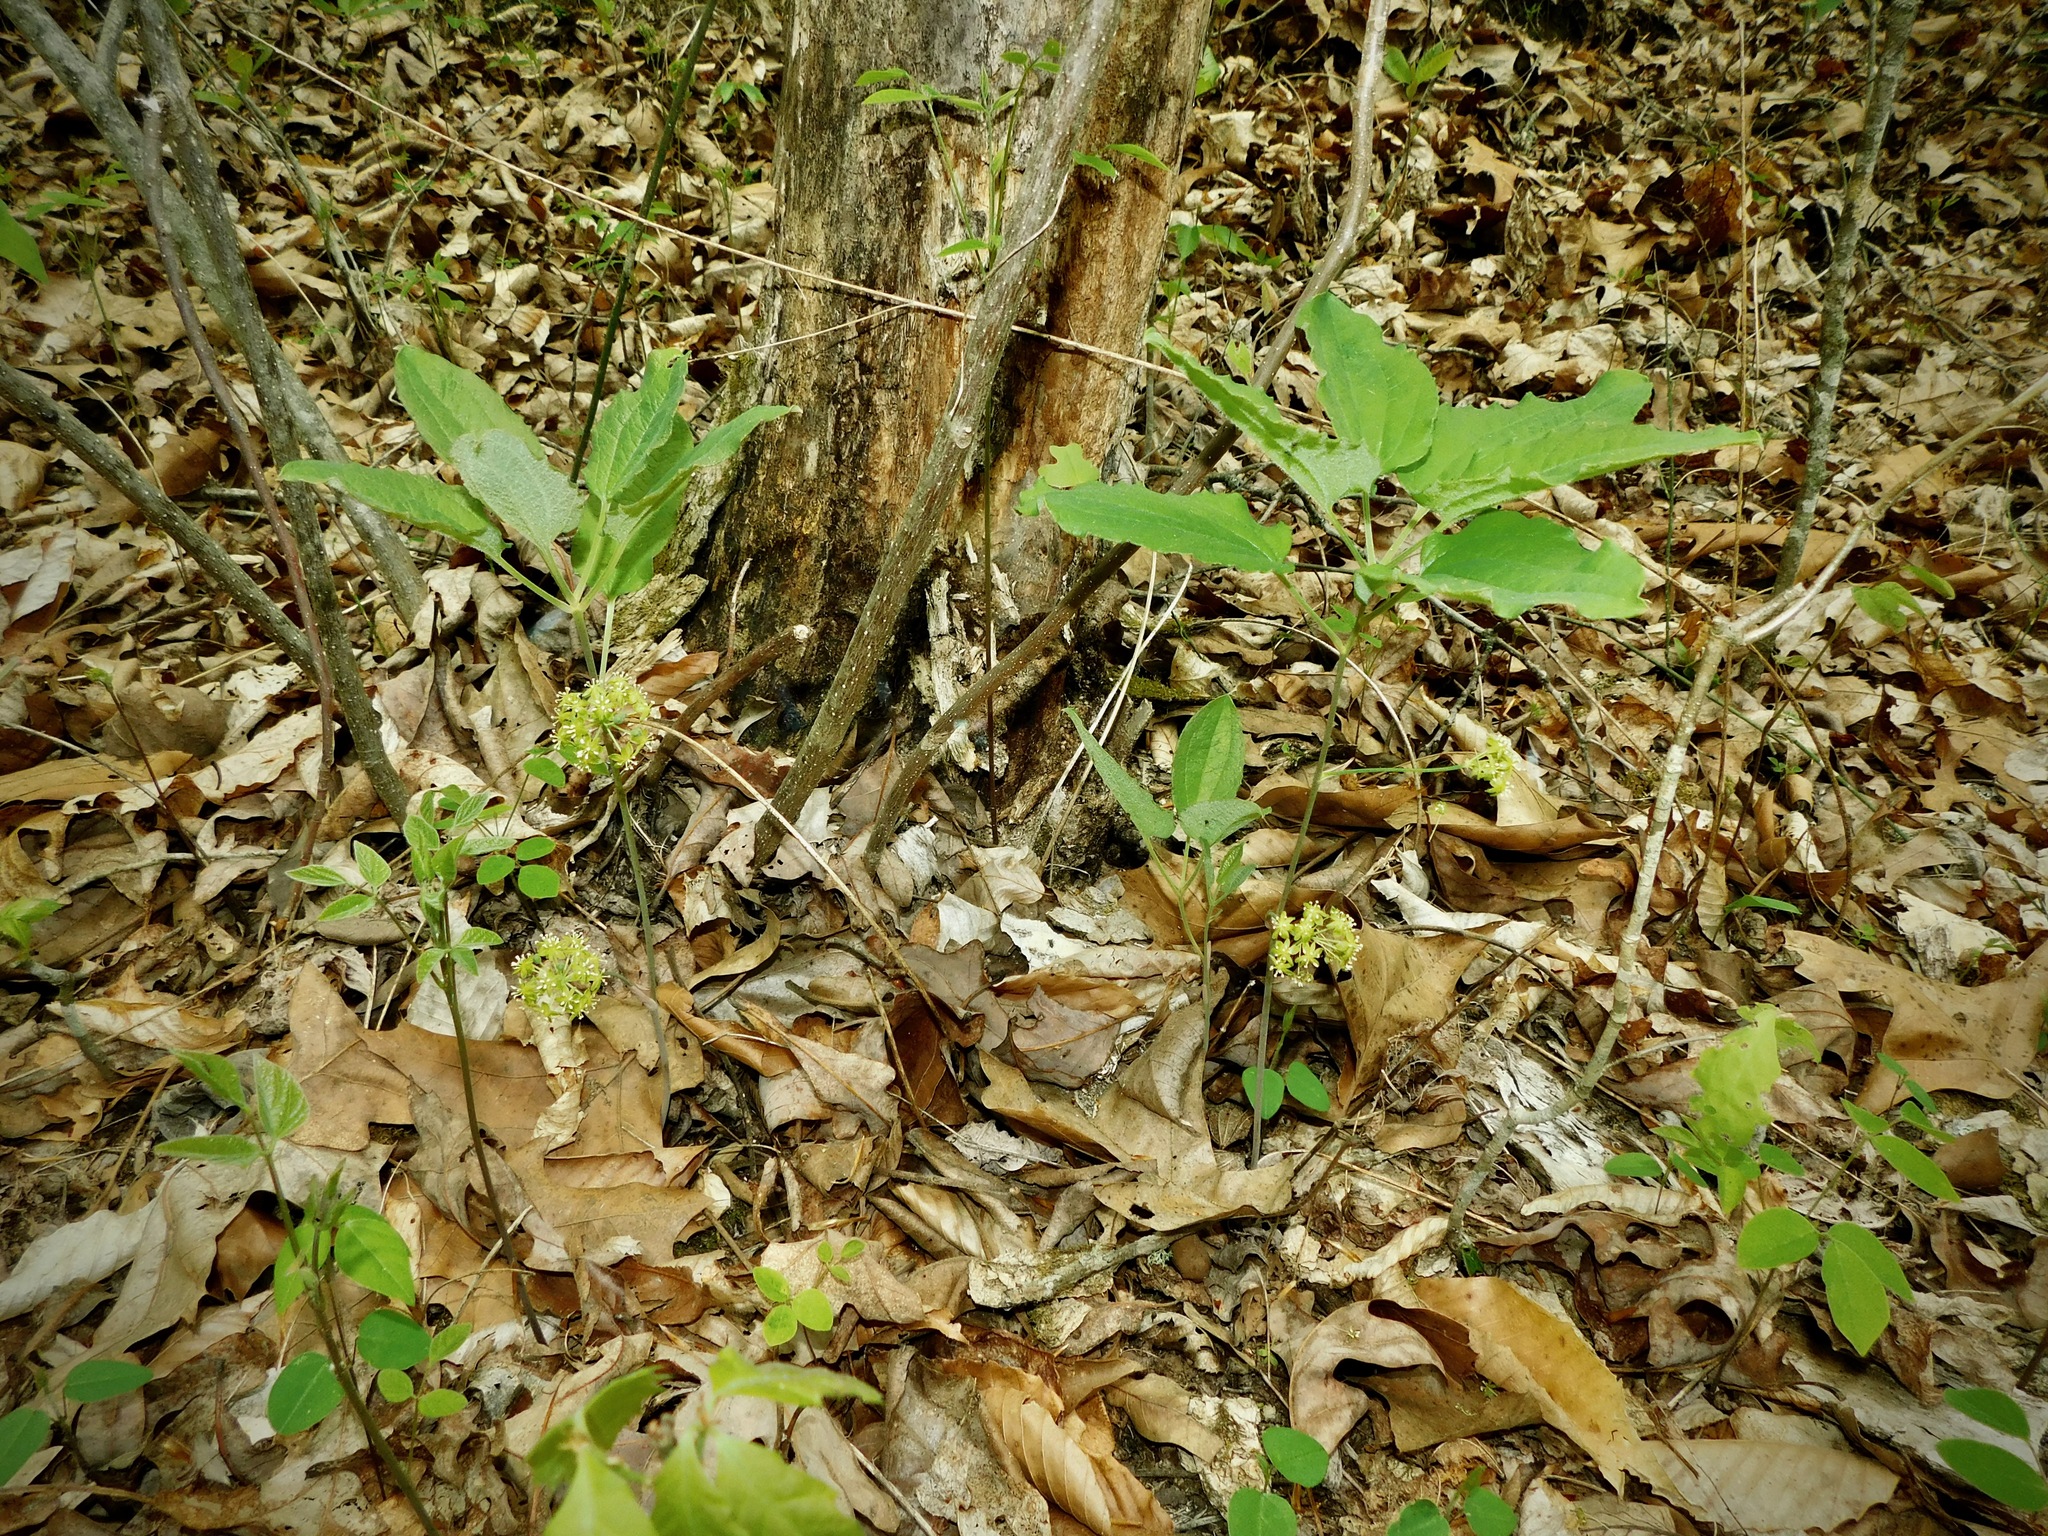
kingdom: Plantae
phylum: Tracheophyta
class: Liliopsida
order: Liliales
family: Smilacaceae
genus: Smilax
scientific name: Smilax hugeri
